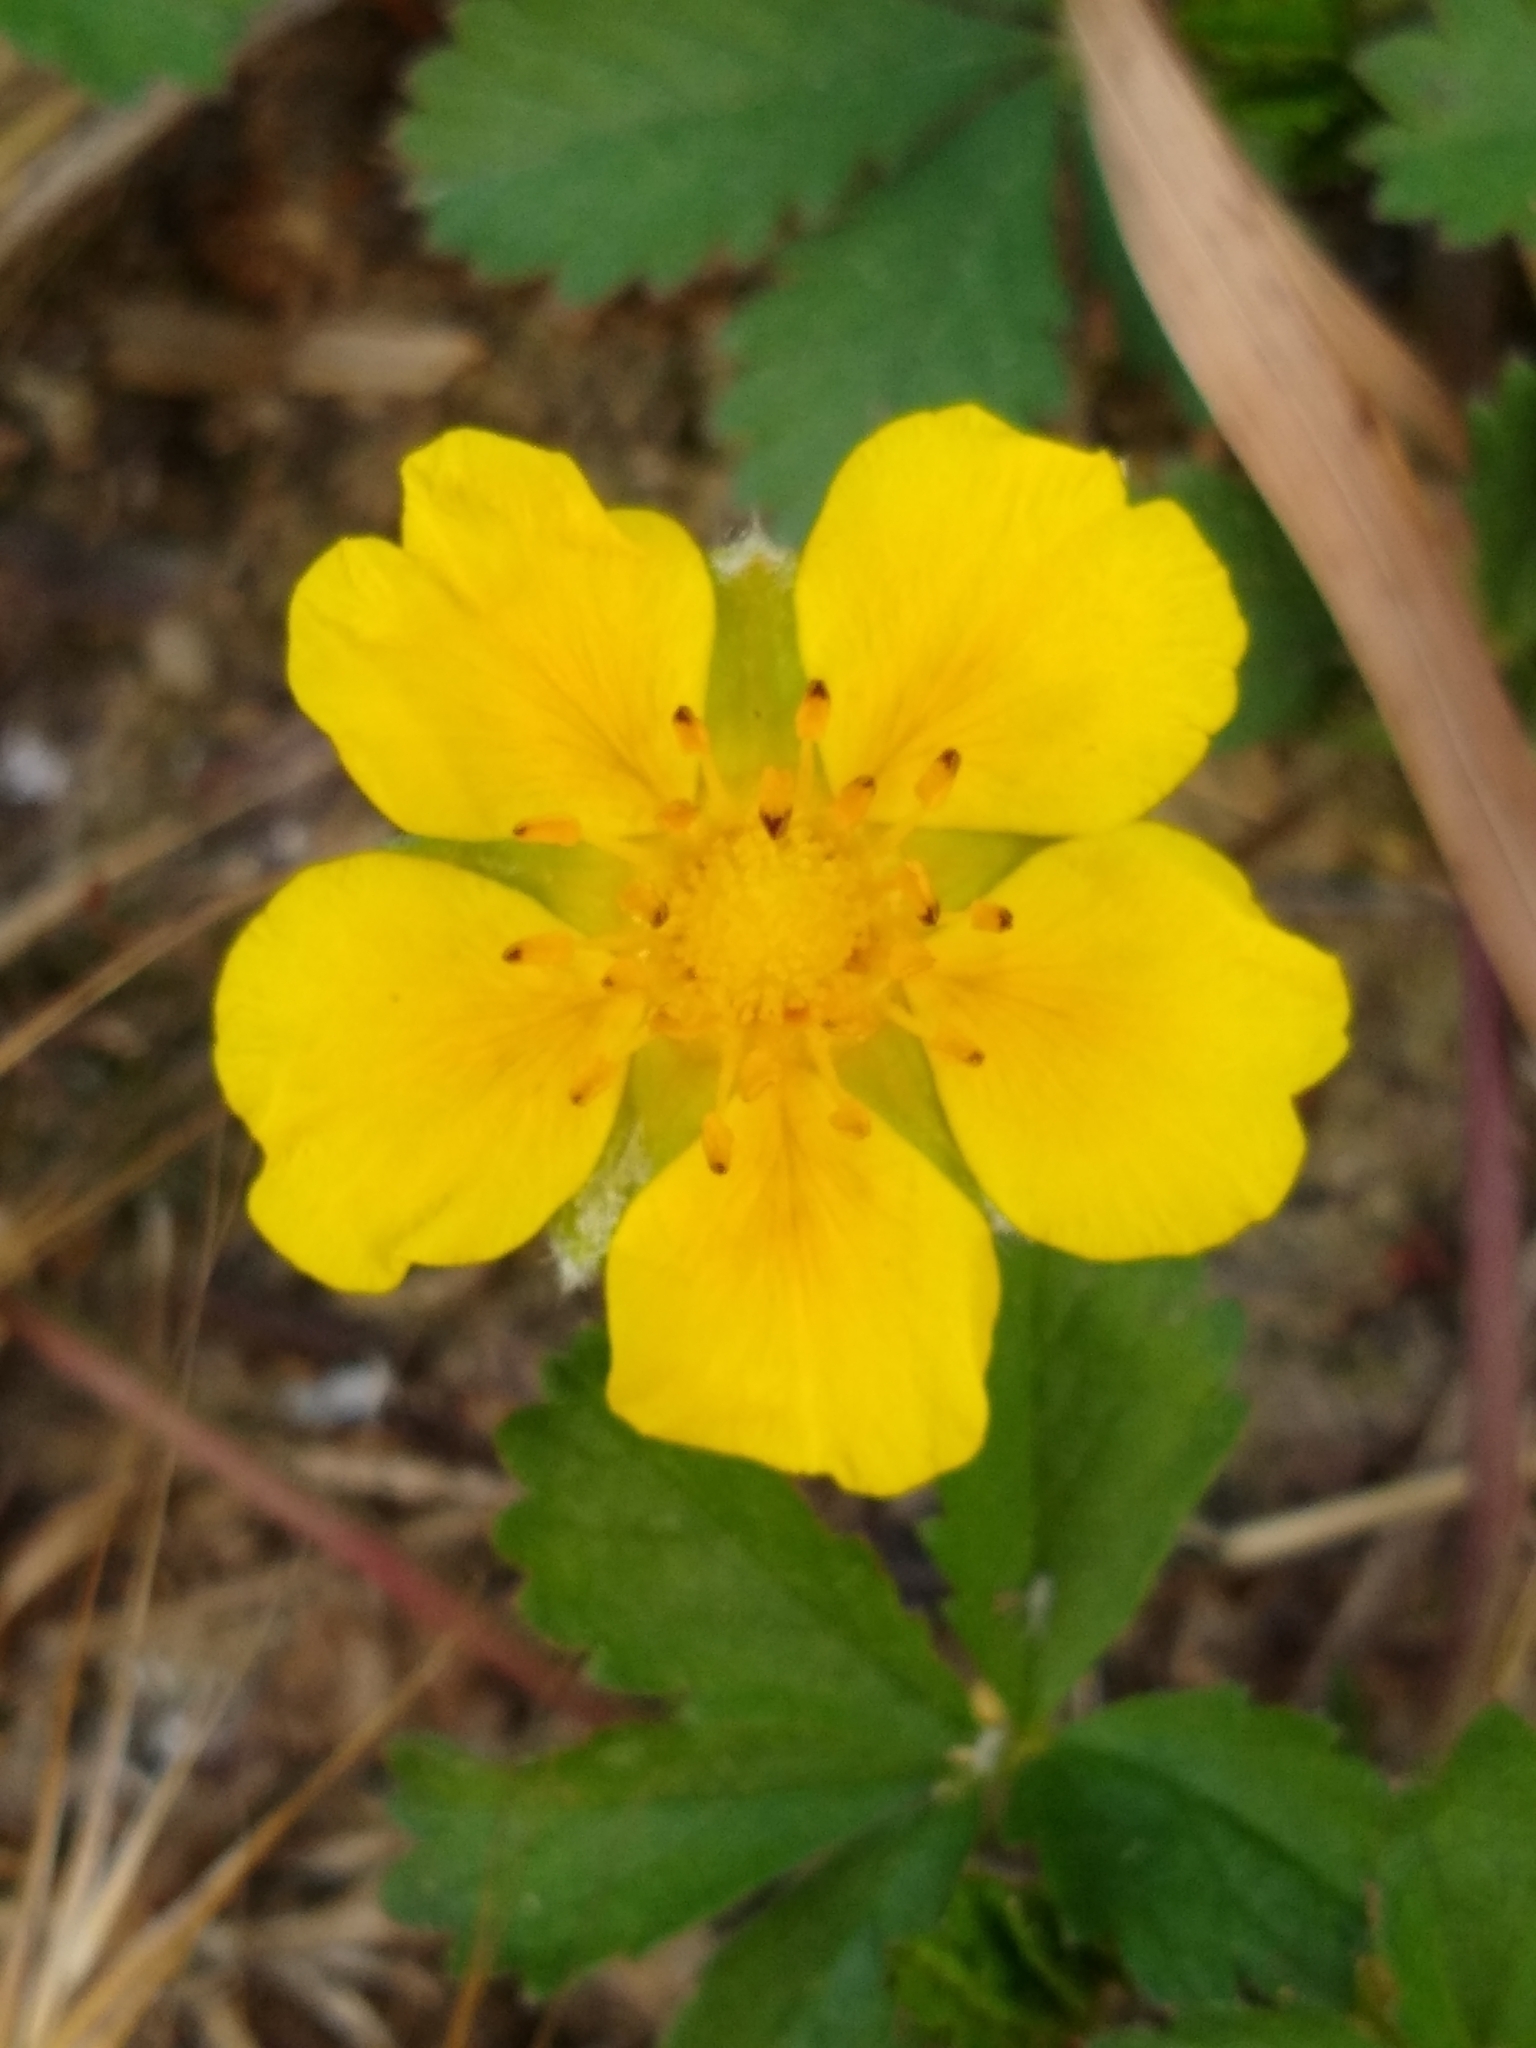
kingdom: Plantae
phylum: Tracheophyta
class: Magnoliopsida
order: Rosales
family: Rosaceae
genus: Potentilla
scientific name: Potentilla reptans
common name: Creeping cinquefoil
